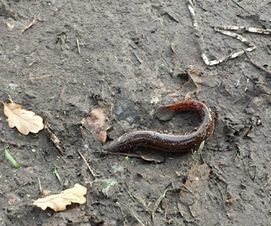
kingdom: Animalia
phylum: Chordata
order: Cypriniformes
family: Cobitidae
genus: Misgurnus
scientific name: Misgurnus fossilis
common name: Weatherfish
